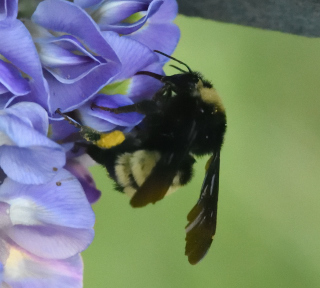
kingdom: Animalia
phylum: Arthropoda
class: Insecta
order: Hymenoptera
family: Apidae
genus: Bombus
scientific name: Bombus pensylvanicus
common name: Bumble bee
